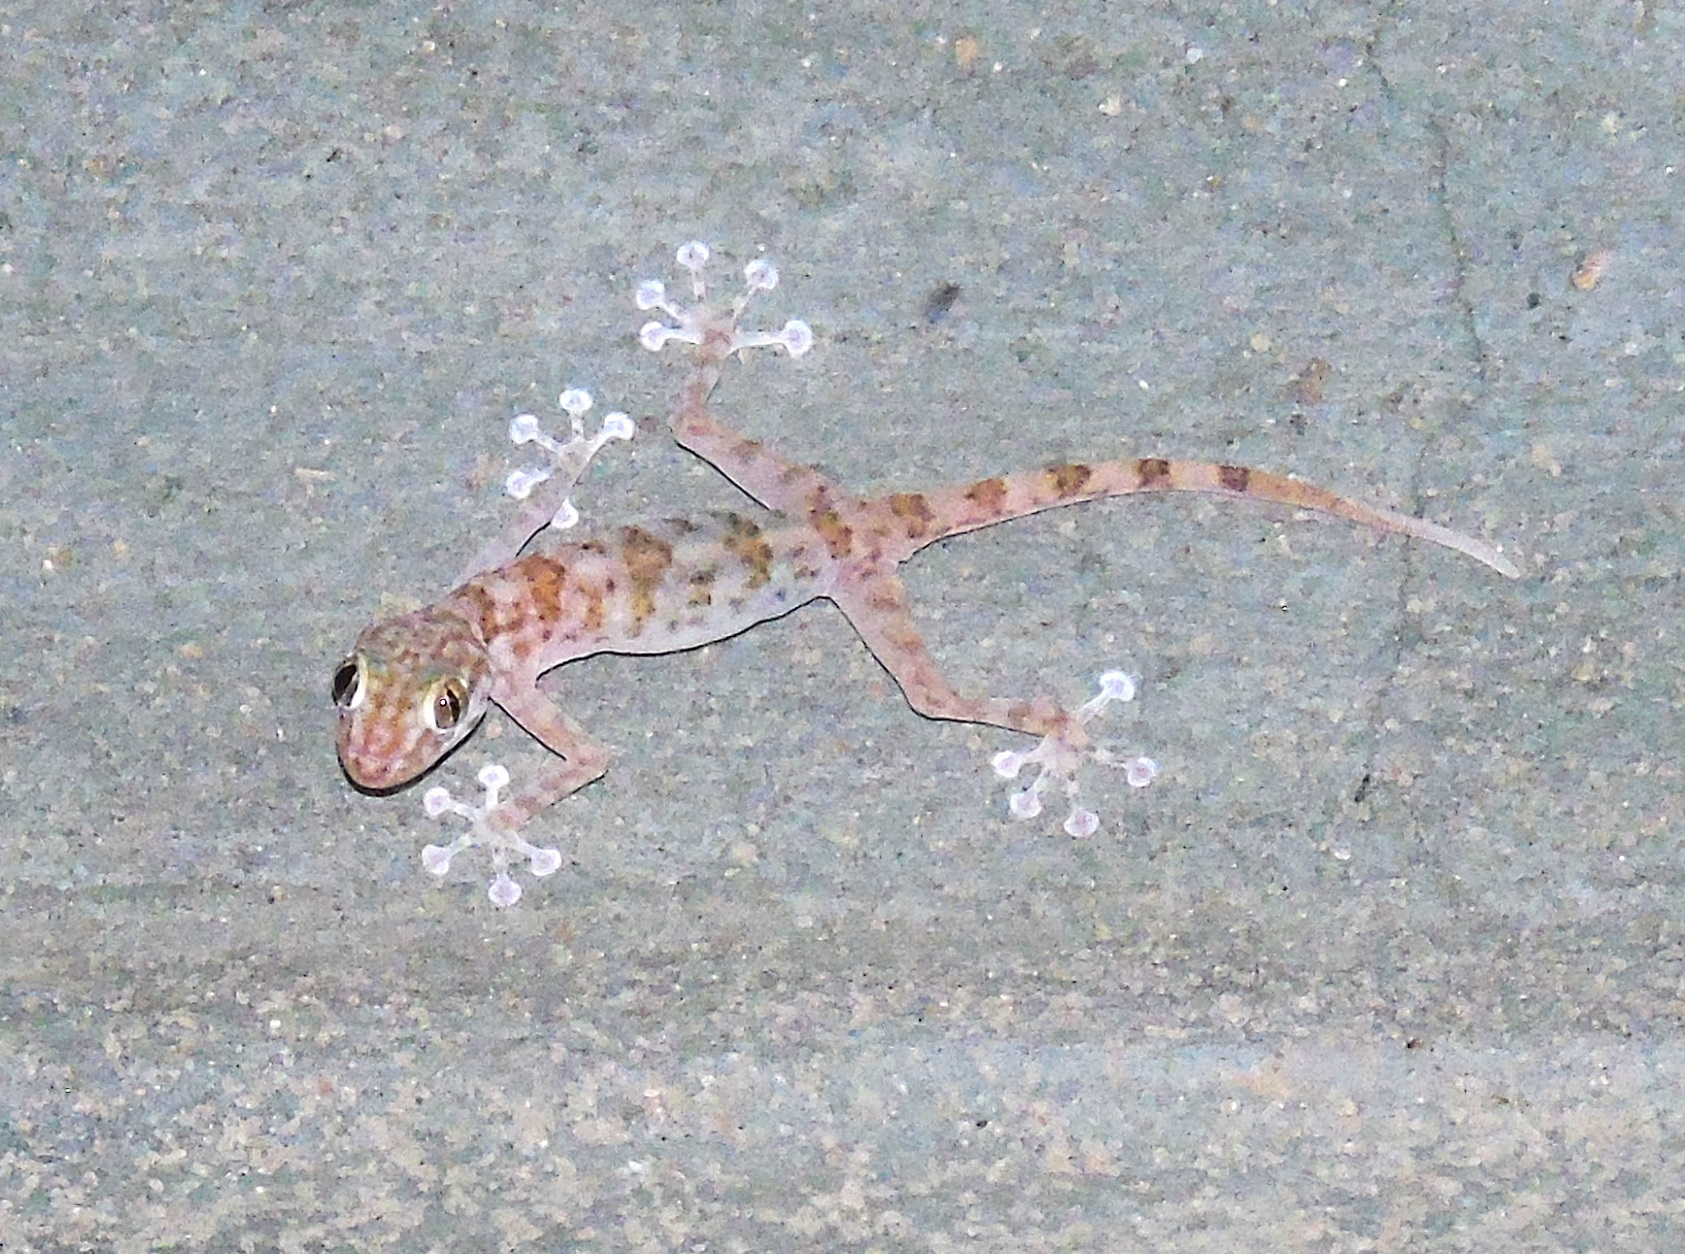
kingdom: Animalia
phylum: Chordata
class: Squamata
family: Phyllodactylidae
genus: Ptyodactylus
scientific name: Ptyodactylus hasselquistii
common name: Hasselquist’s fan-footed gecko
